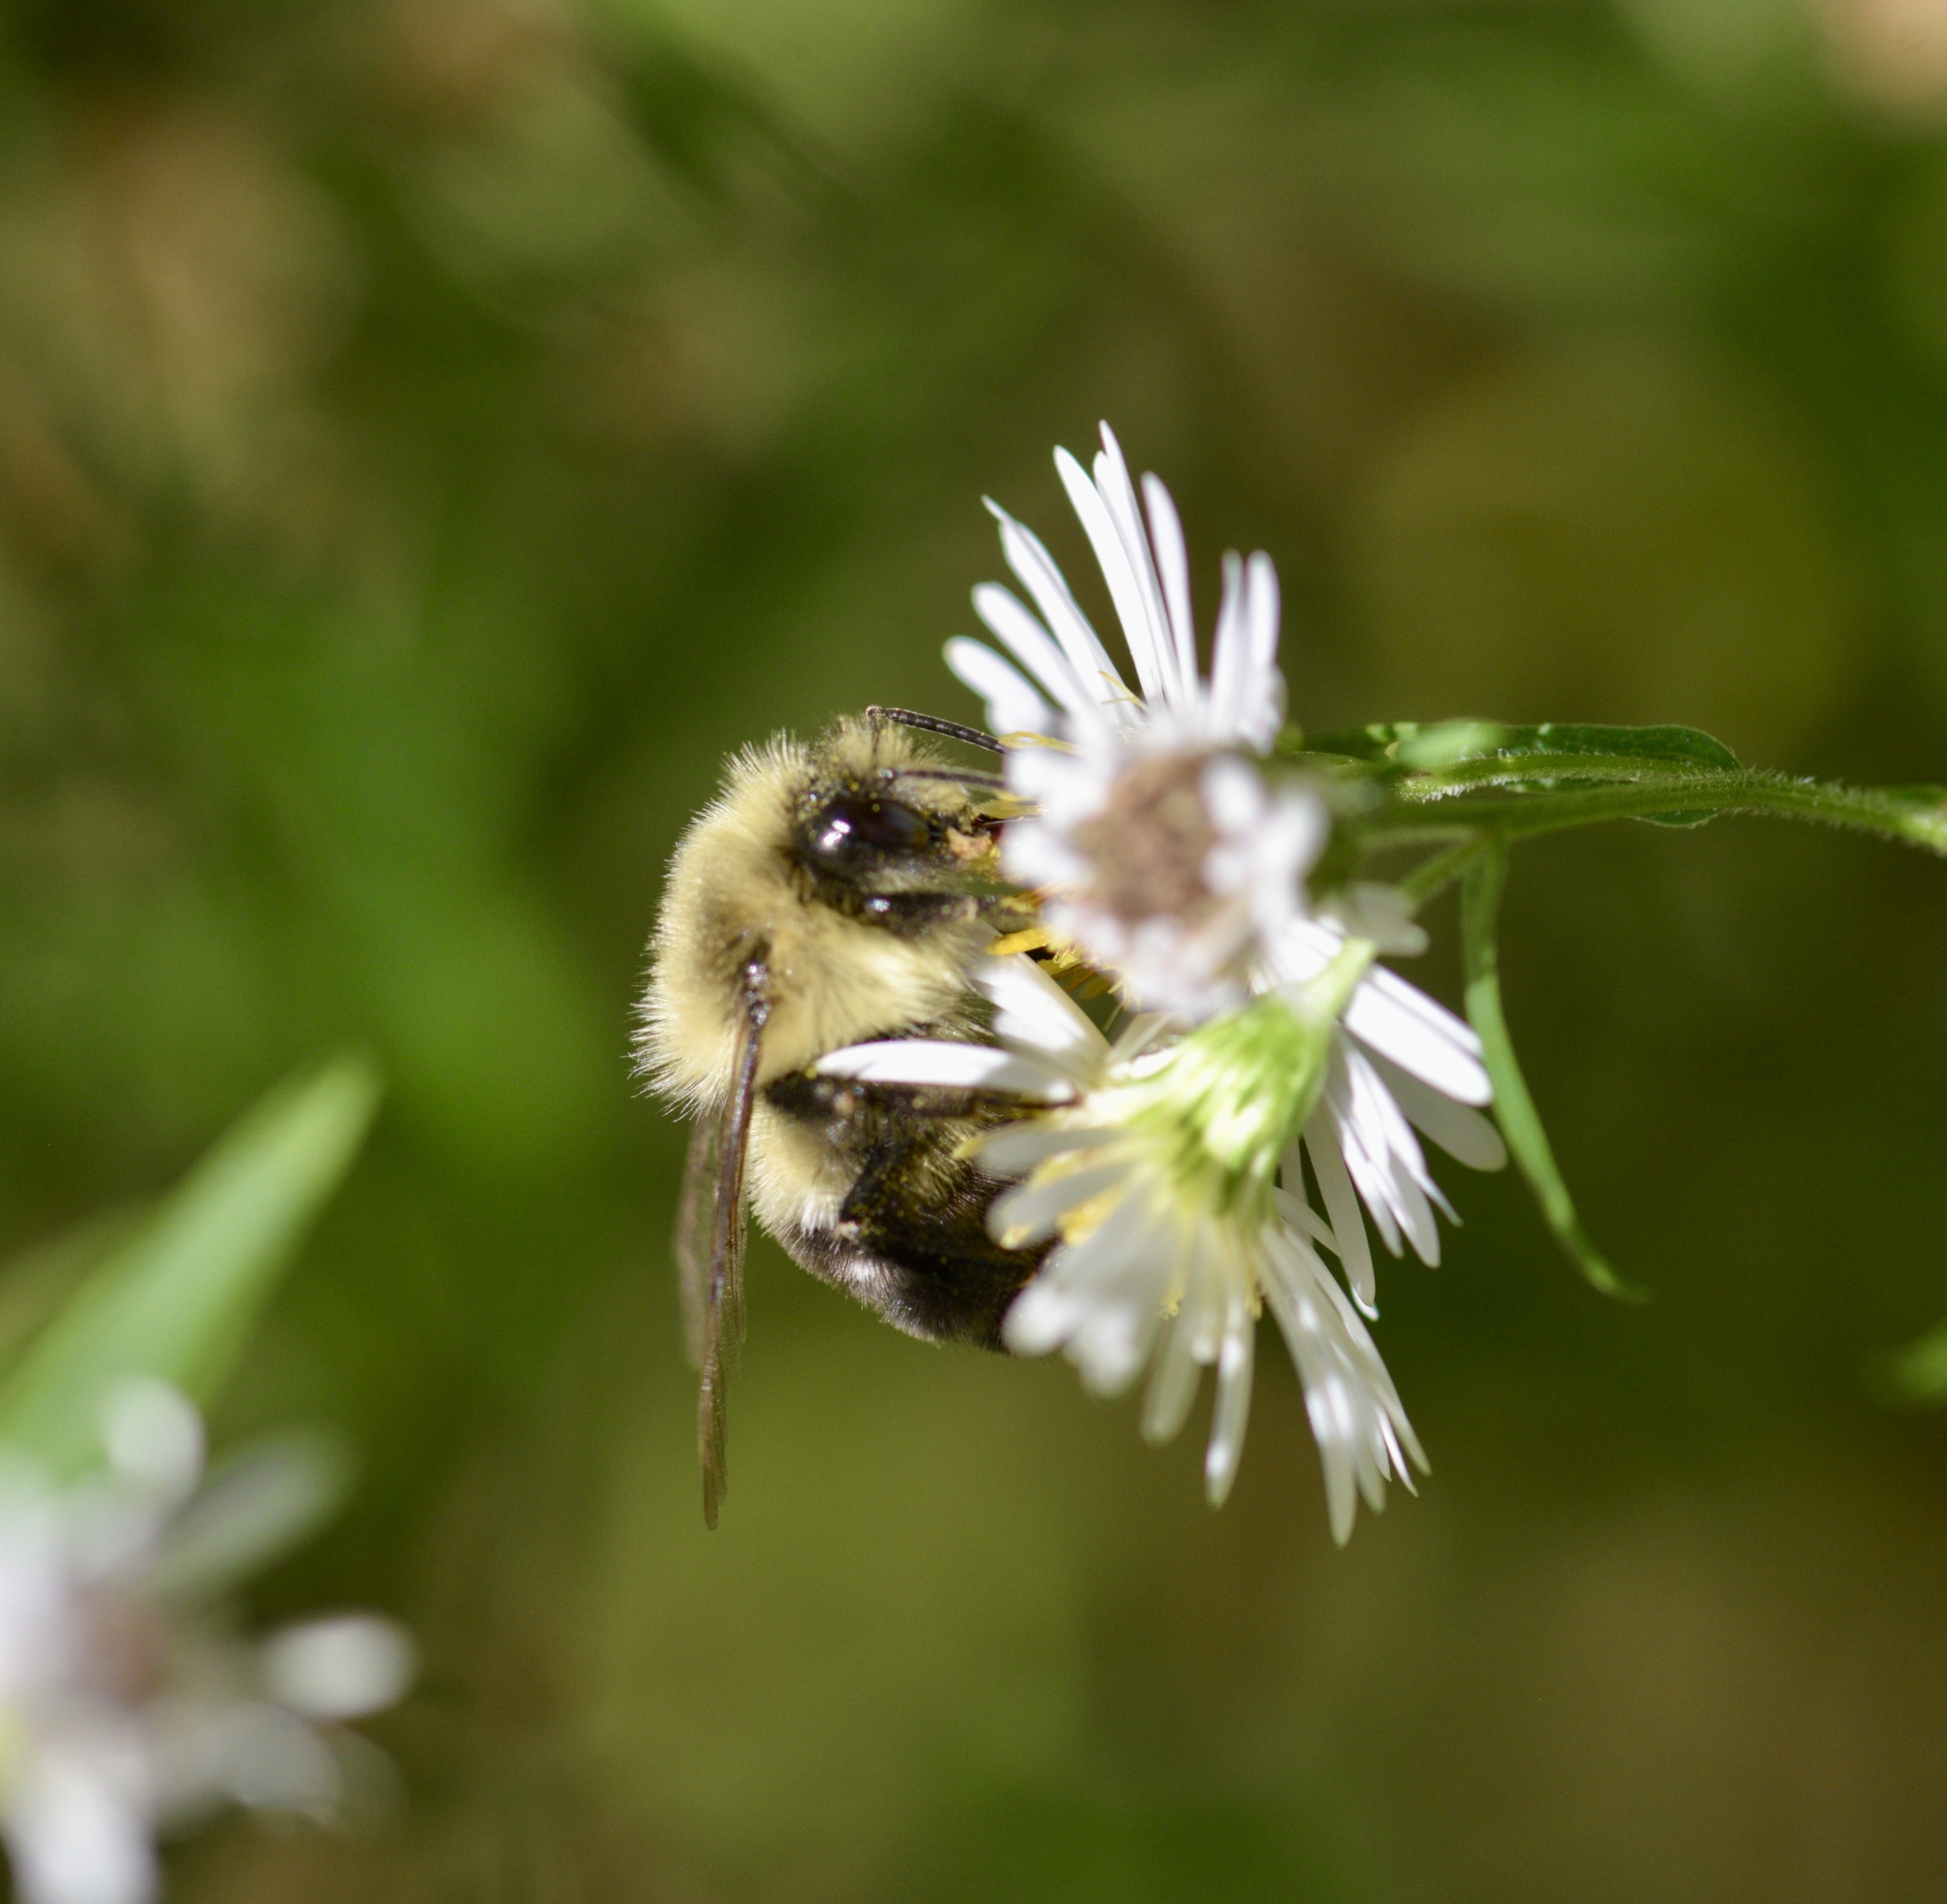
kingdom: Animalia
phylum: Arthropoda
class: Insecta
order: Hymenoptera
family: Apidae
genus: Bombus
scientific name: Bombus impatiens
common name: Common eastern bumble bee
